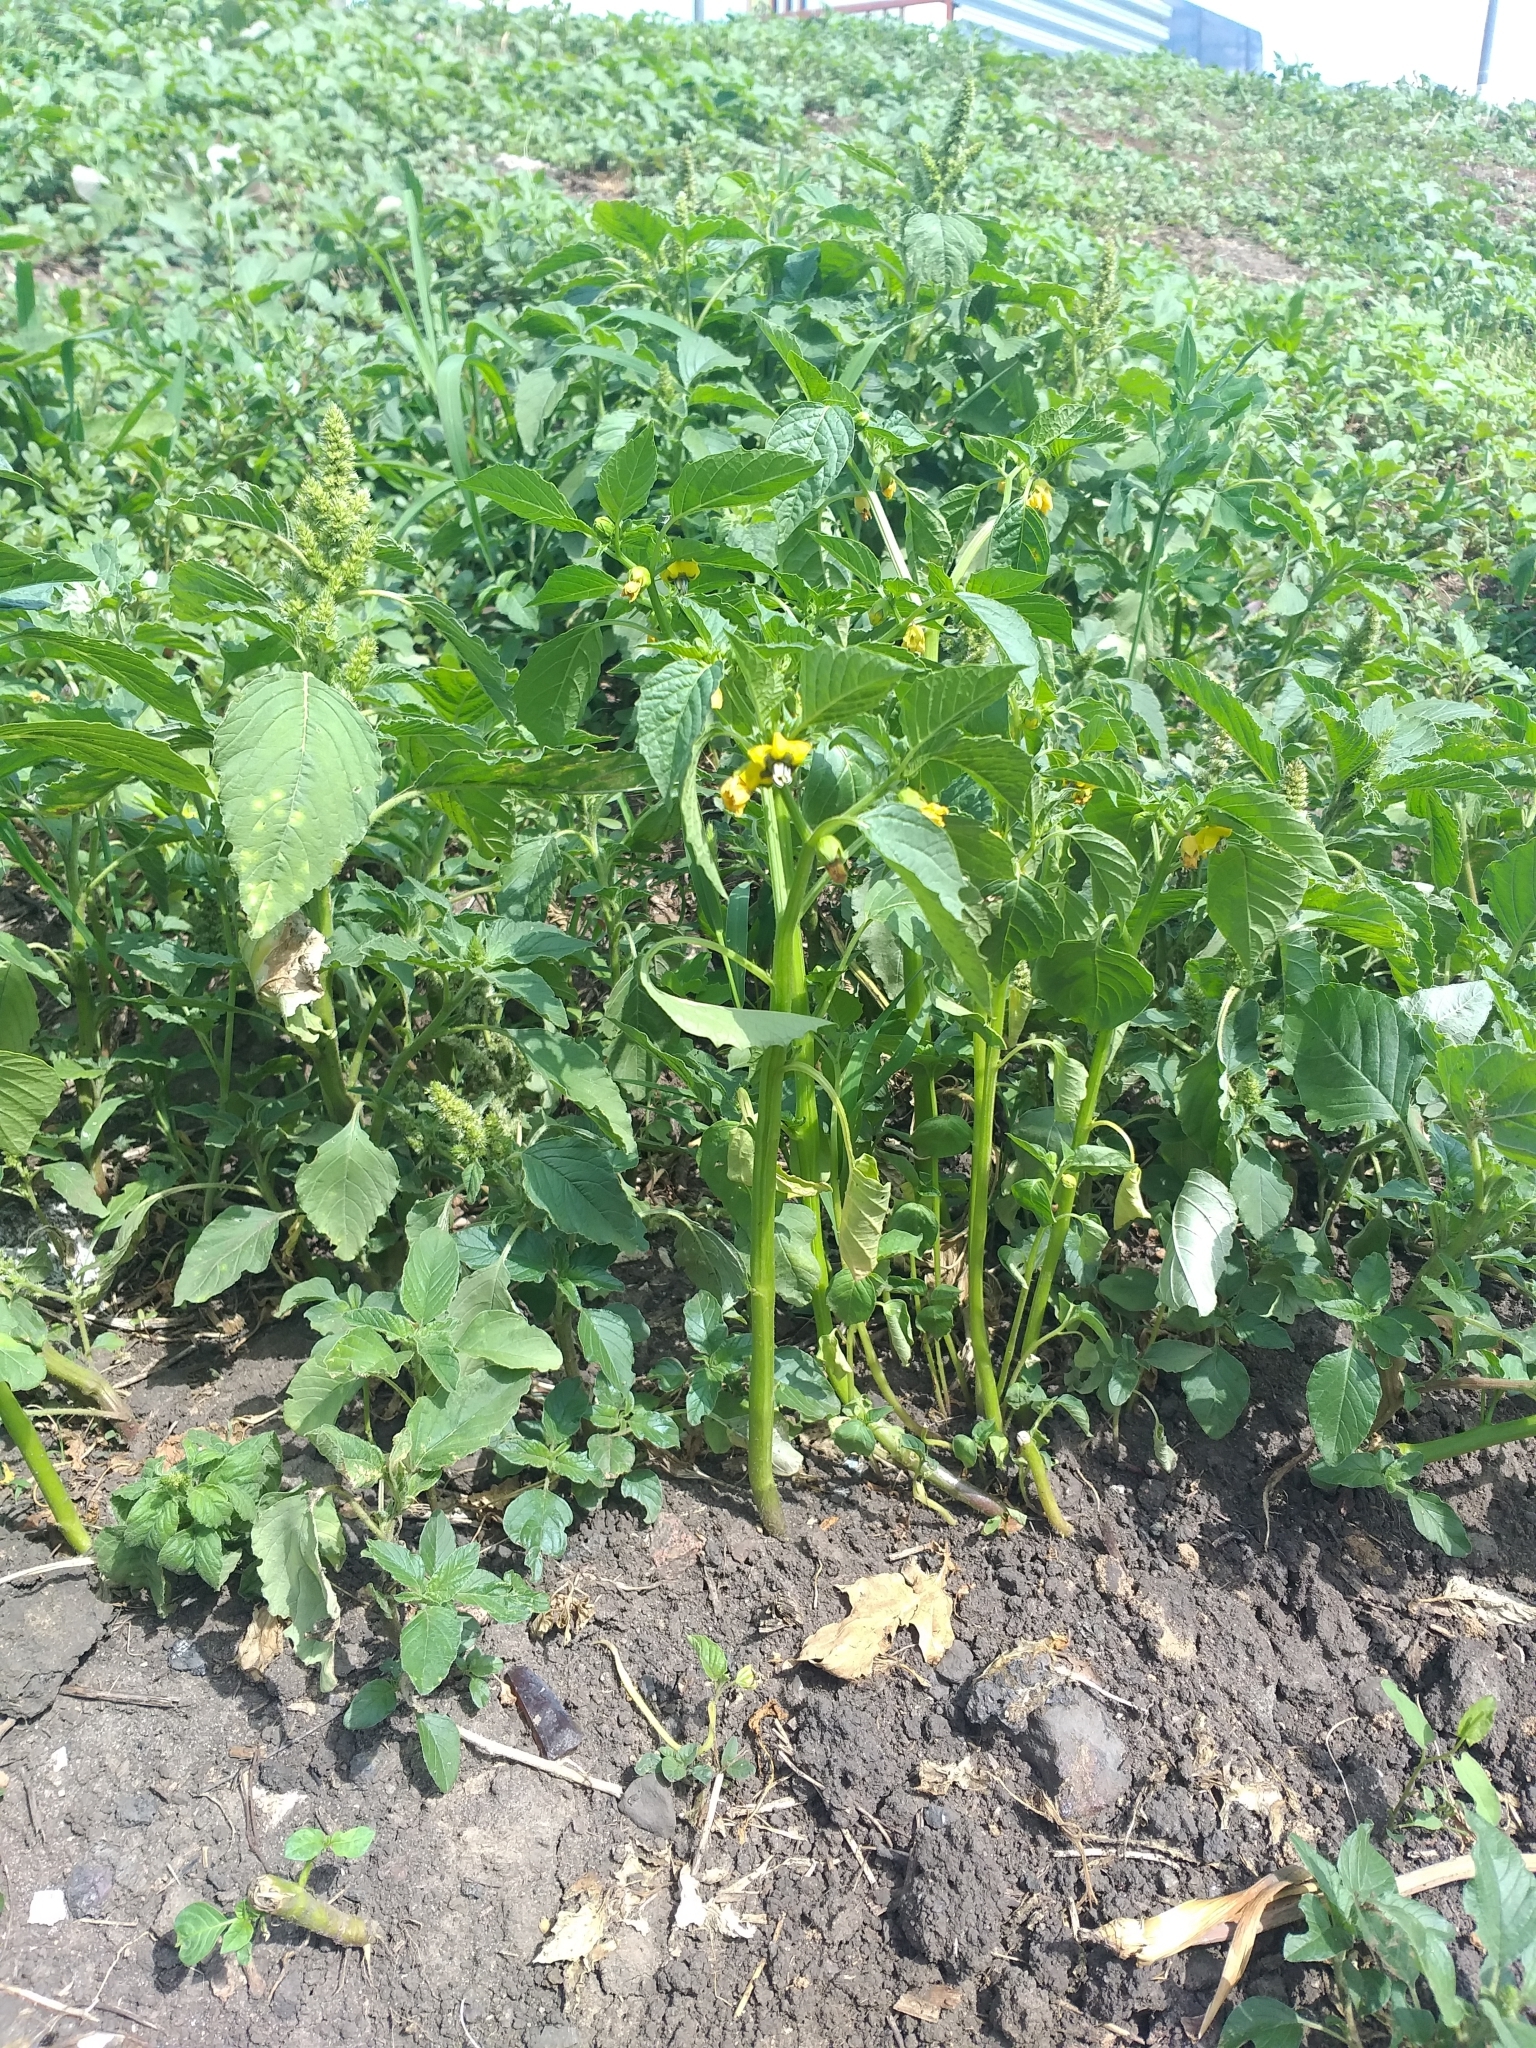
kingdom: Plantae
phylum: Tracheophyta
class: Magnoliopsida
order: Solanales
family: Solanaceae
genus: Physalis
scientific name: Physalis philadelphica
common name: Husk-tomato
